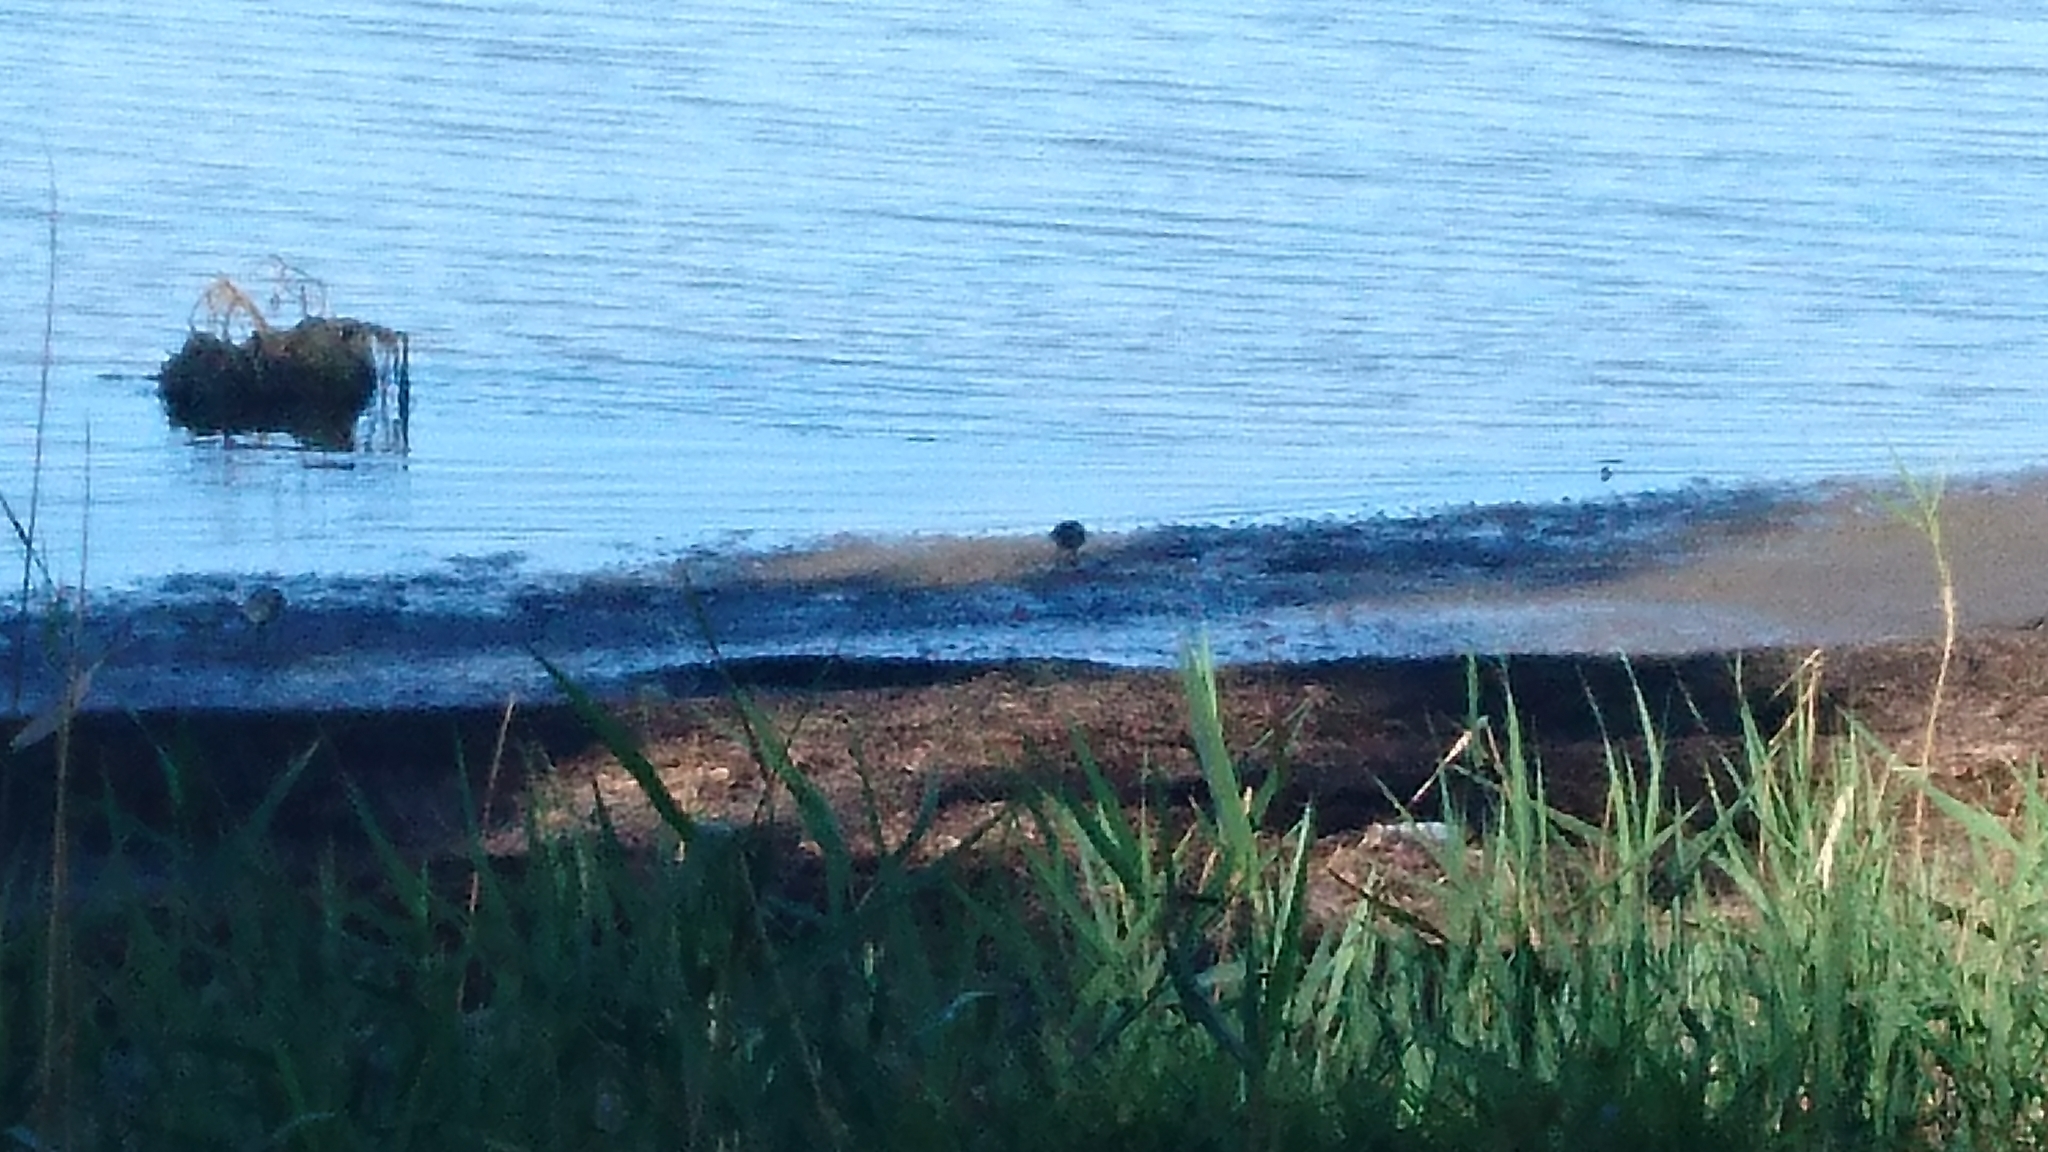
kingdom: Animalia
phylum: Chordata
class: Aves
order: Charadriiformes
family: Scolopacidae
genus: Calidris
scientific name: Calidris acuminata
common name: Sharp-tailed sandpiper
